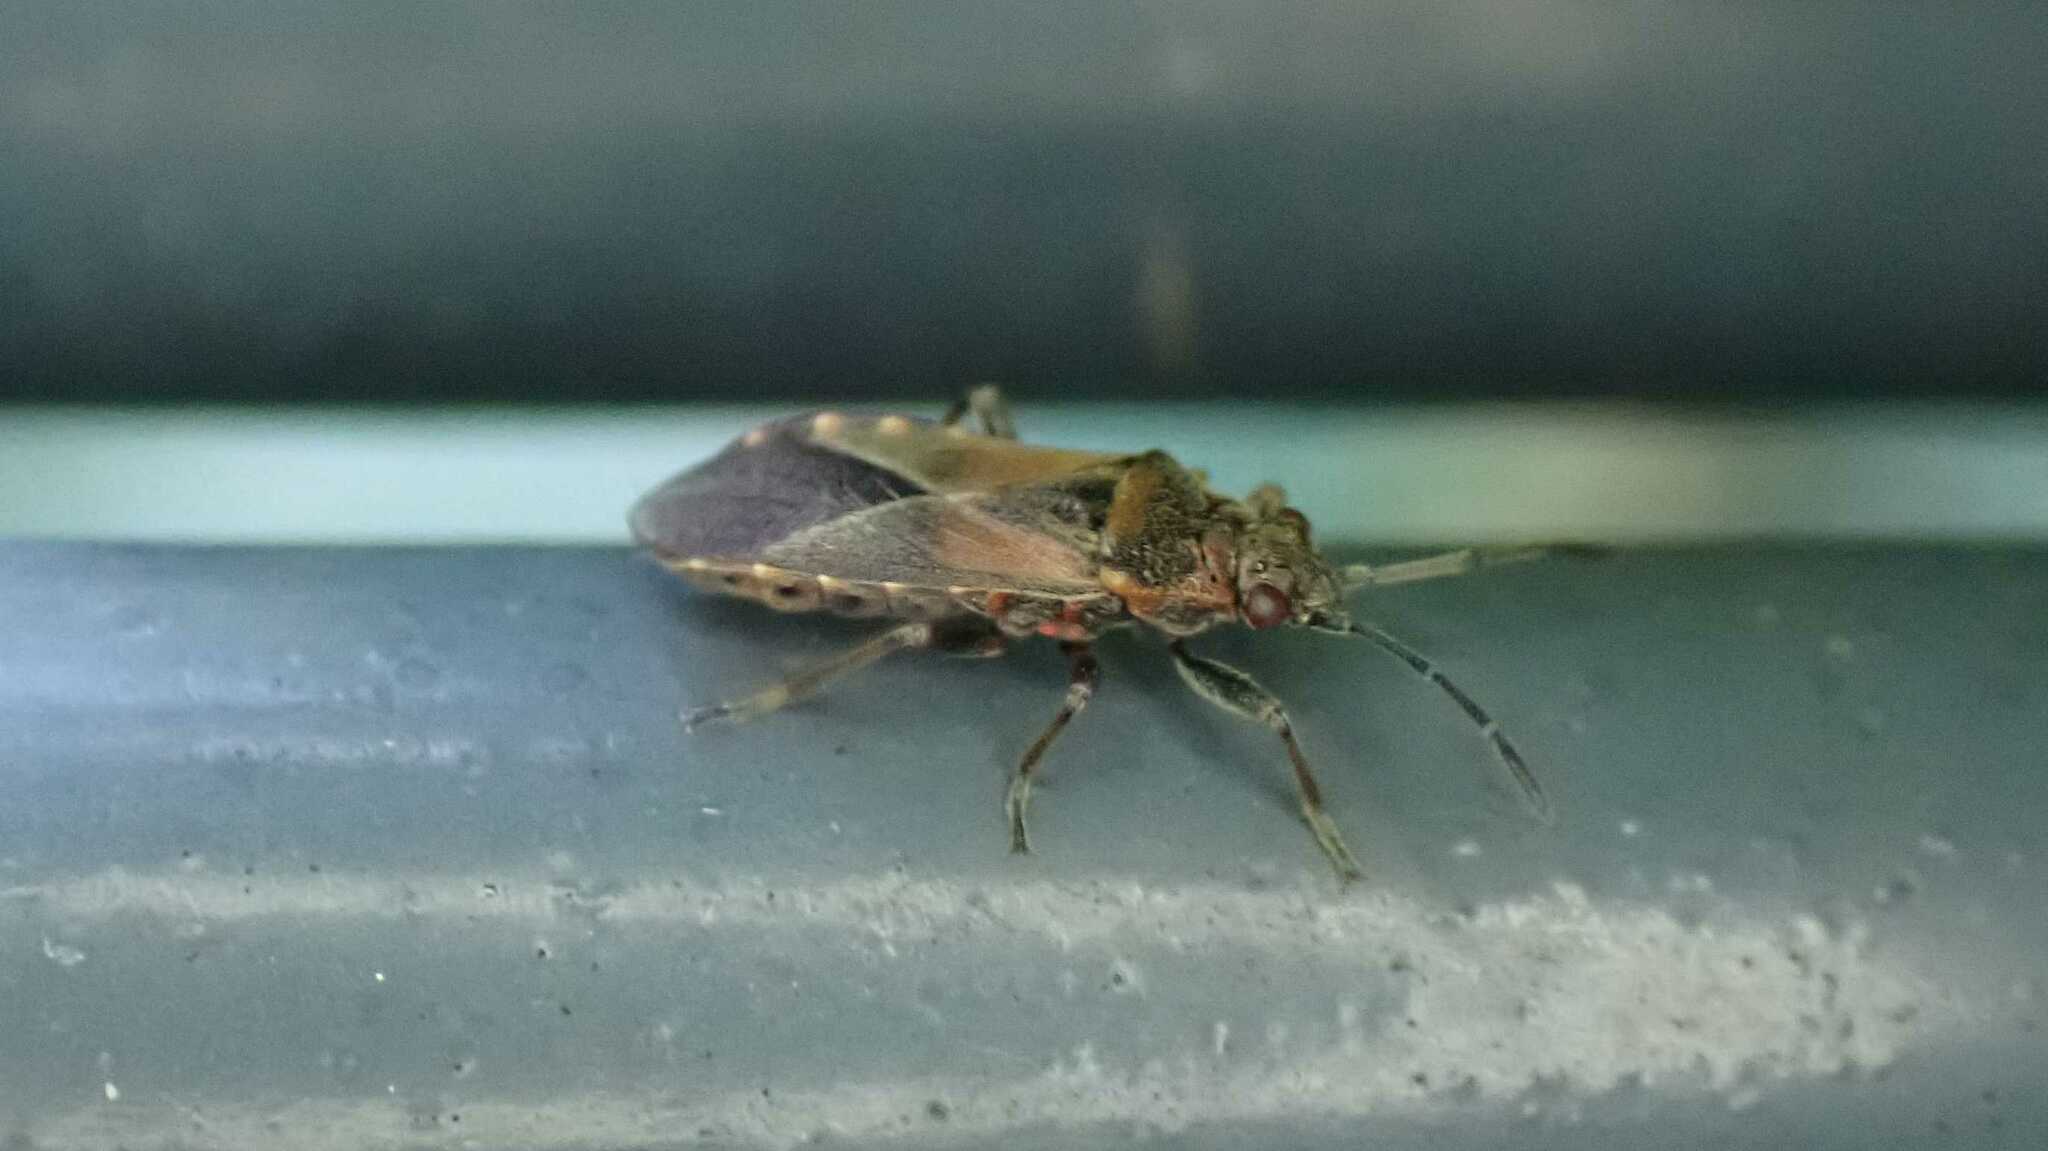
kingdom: Animalia
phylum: Arthropoda
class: Insecta
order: Hemiptera
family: Lygaeidae
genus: Arocatus
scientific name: Arocatus melanocephalus
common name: Lygaeid bug
